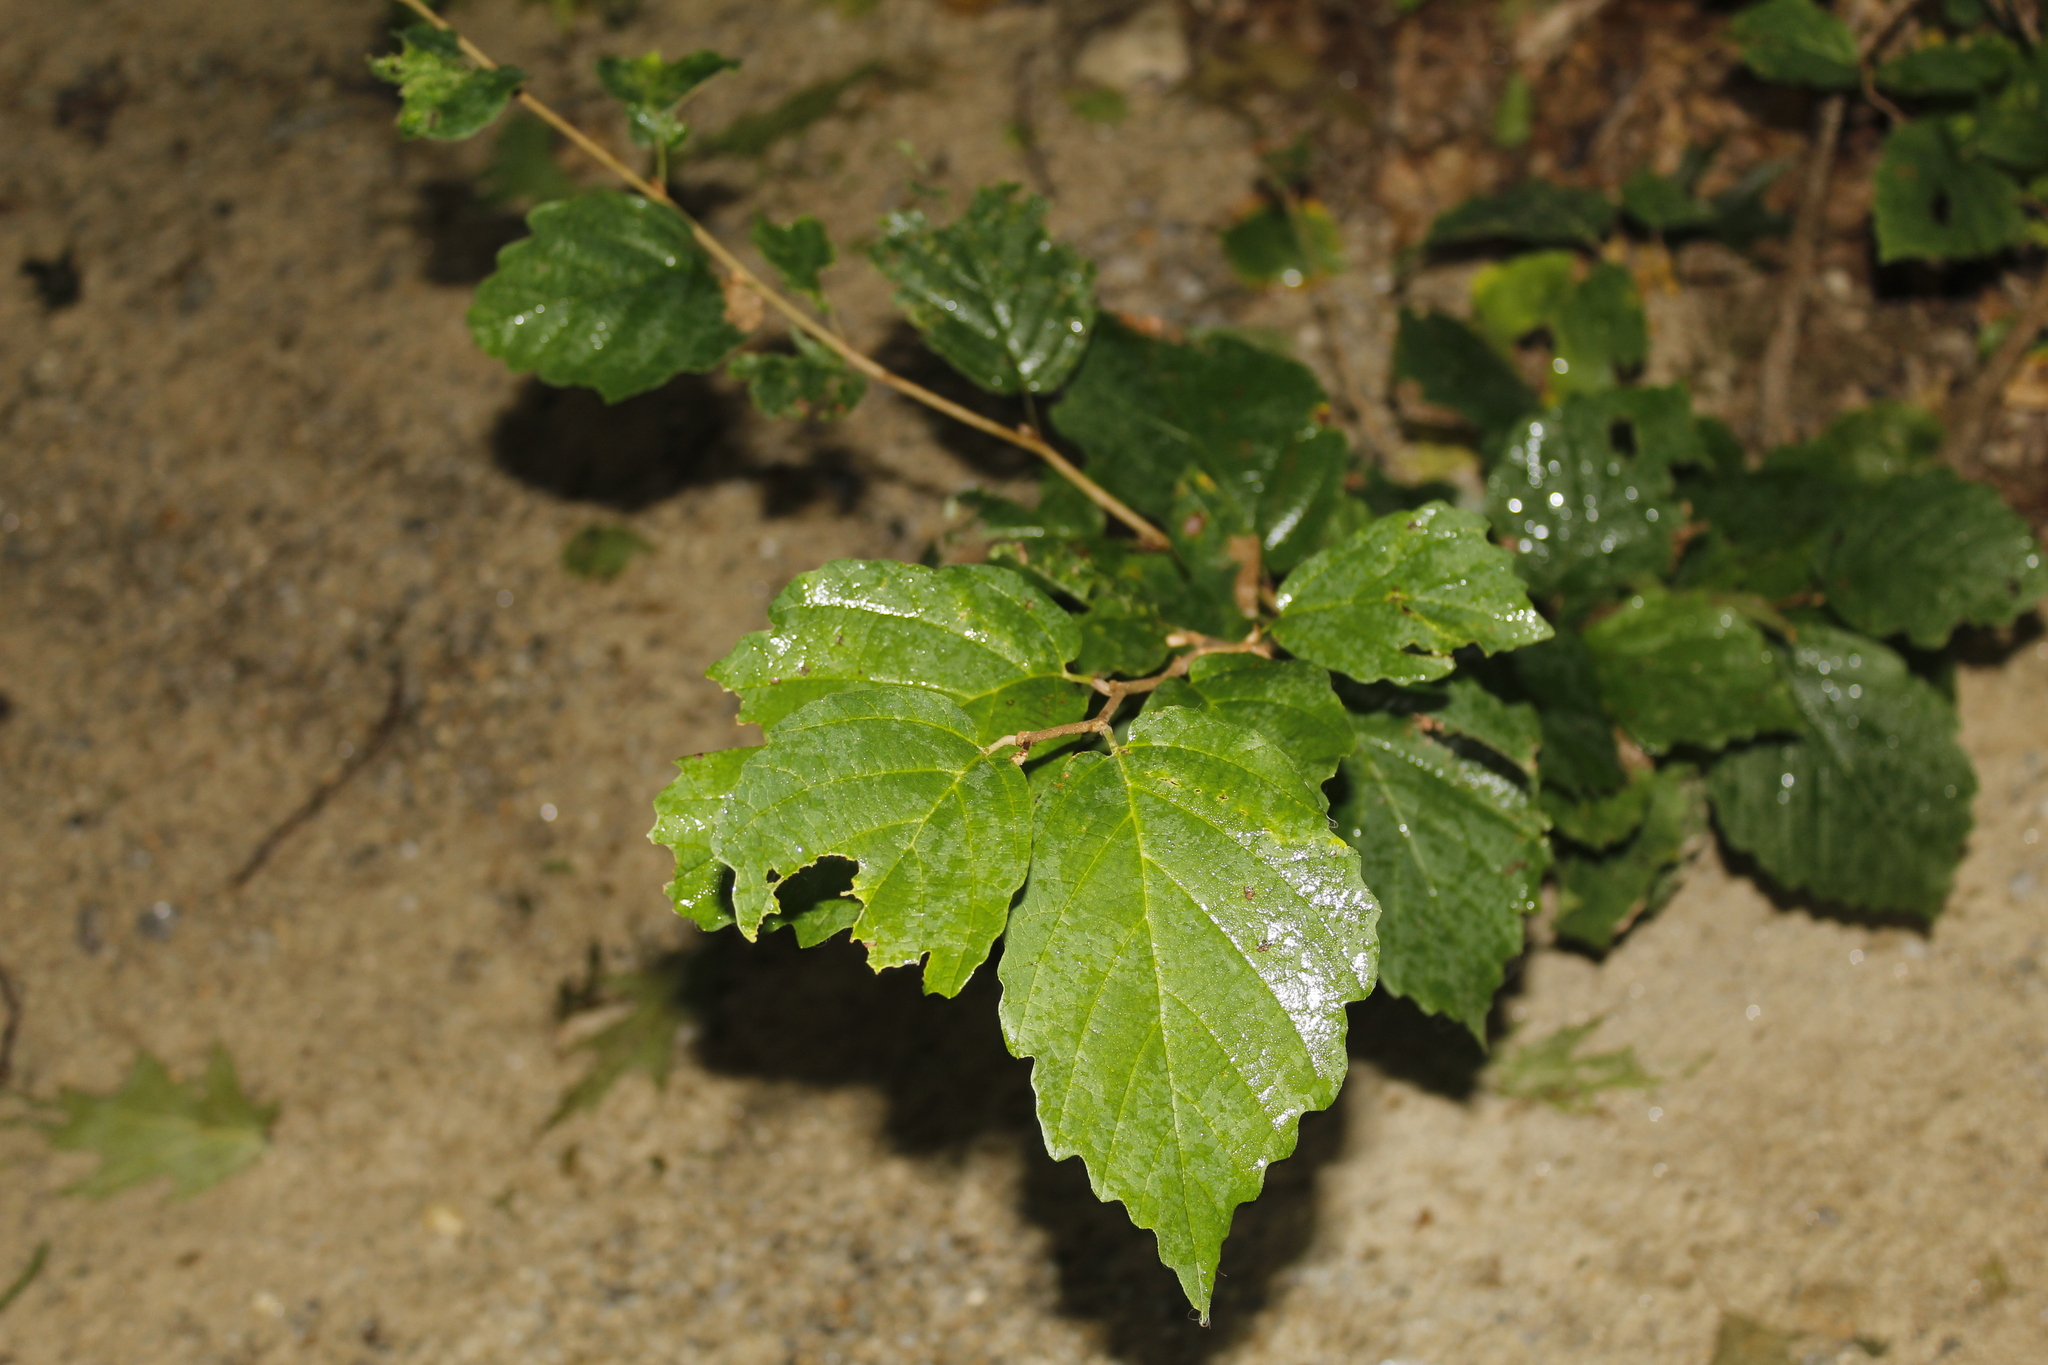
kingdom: Plantae
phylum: Tracheophyta
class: Magnoliopsida
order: Saxifragales
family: Hamamelidaceae
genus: Hamamelis
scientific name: Hamamelis virginiana
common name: Witch-hazel
